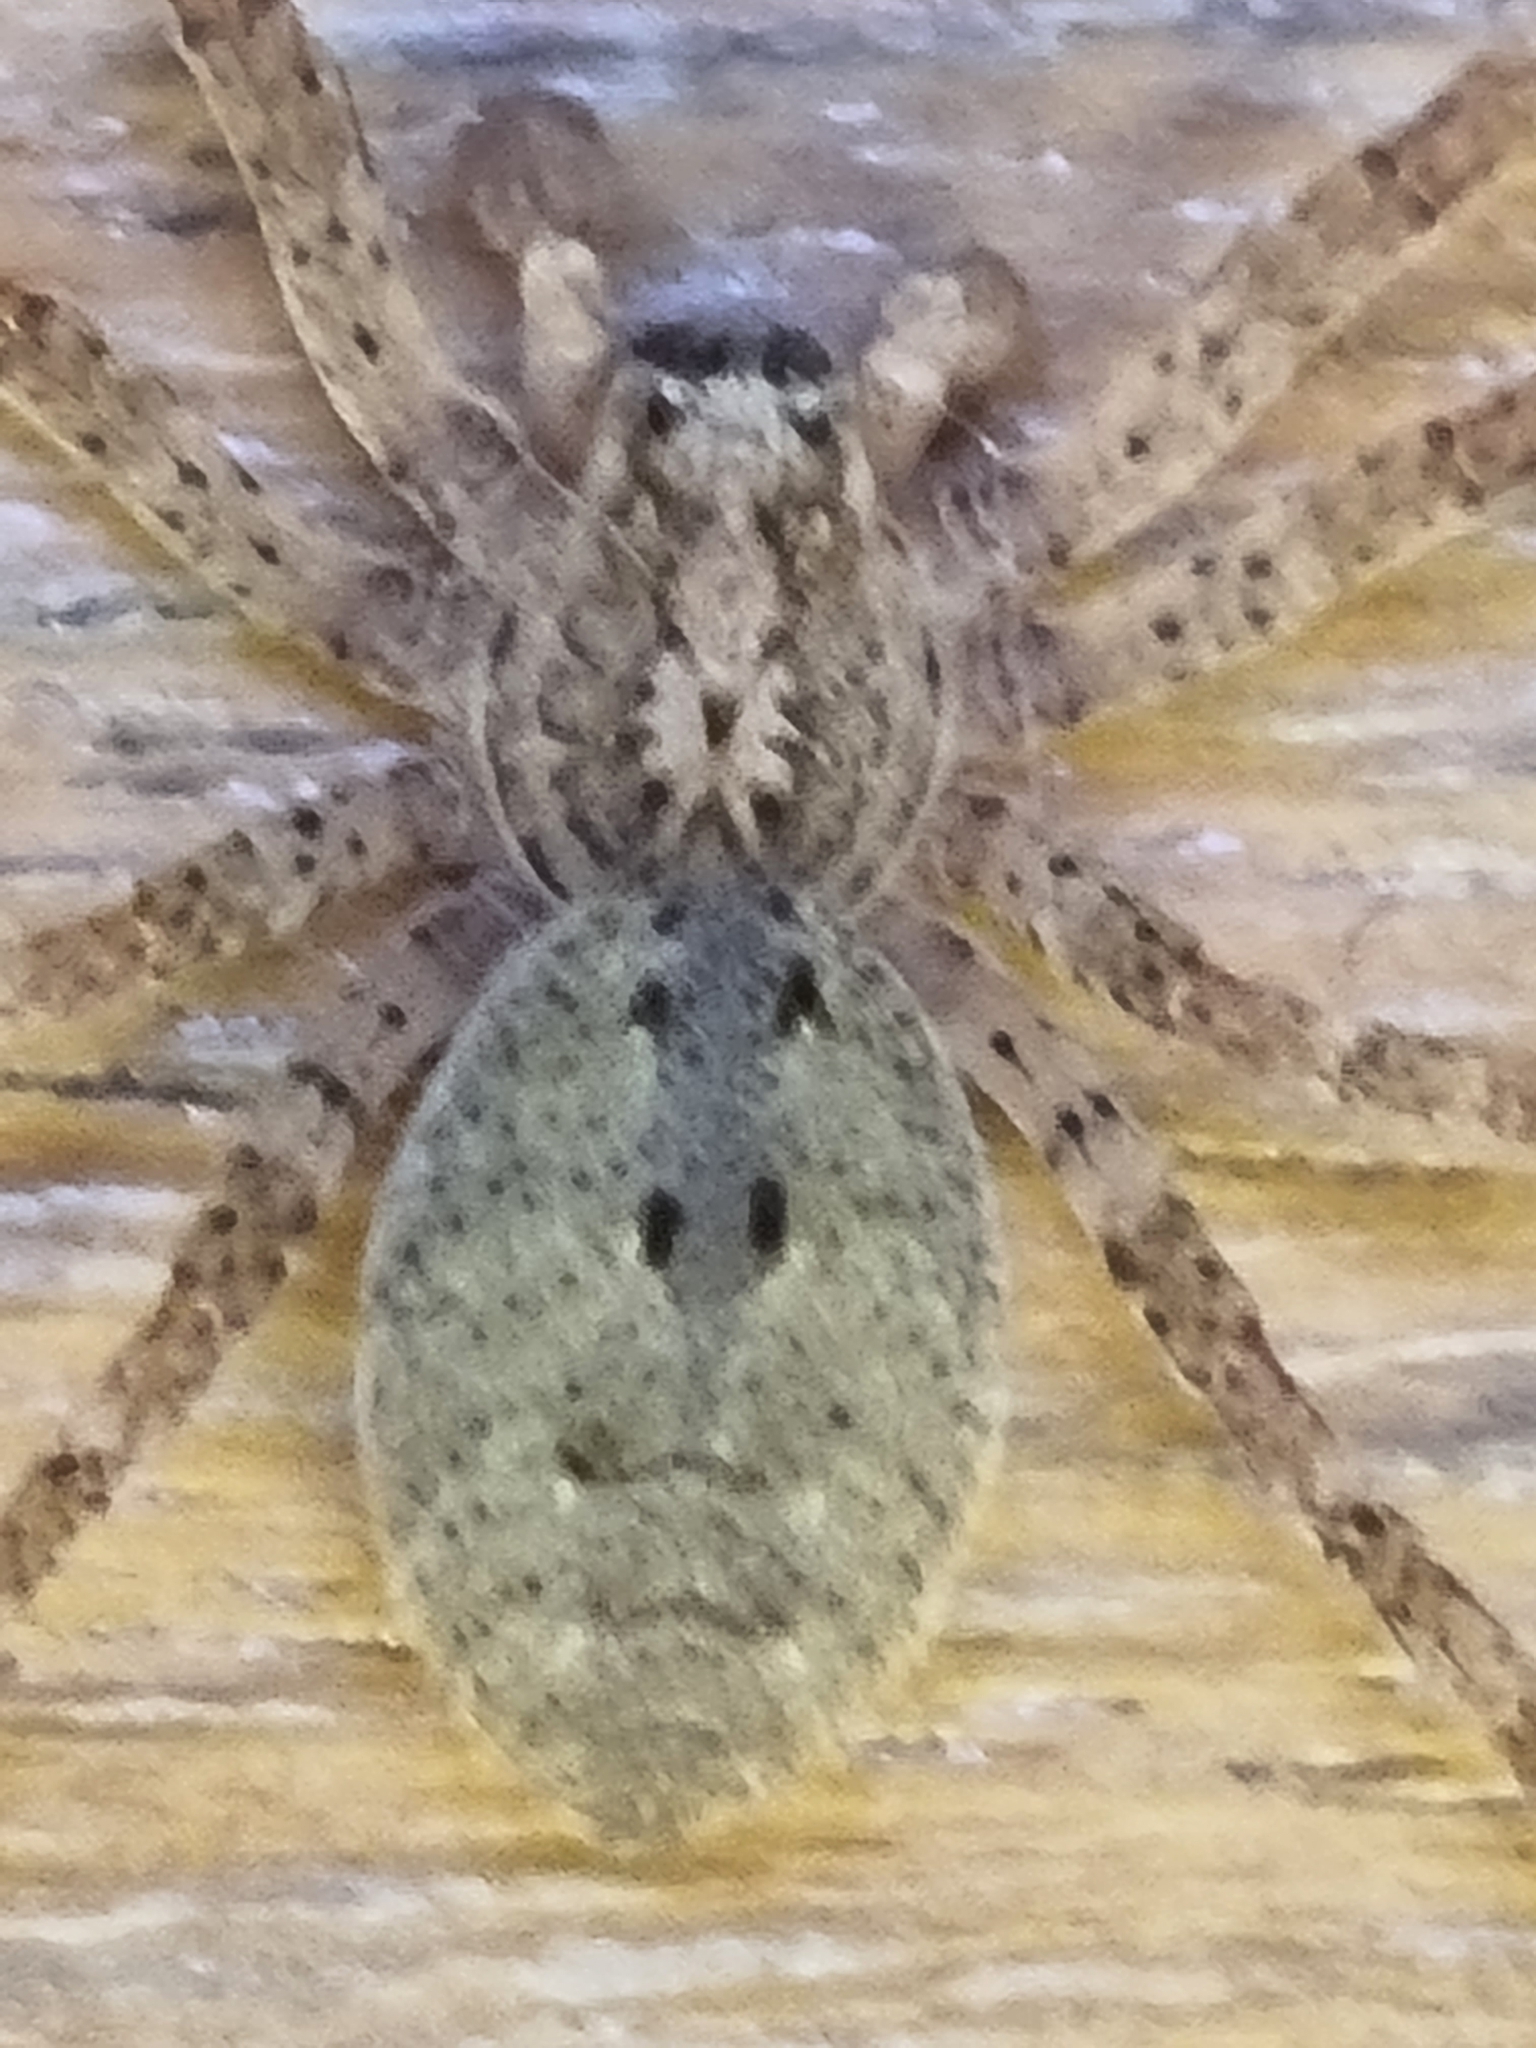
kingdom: Animalia
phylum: Arthropoda
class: Arachnida
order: Araneae
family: Zoropsidae
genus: Zoropsis
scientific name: Zoropsis spinimana
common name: Zoropsid spider
